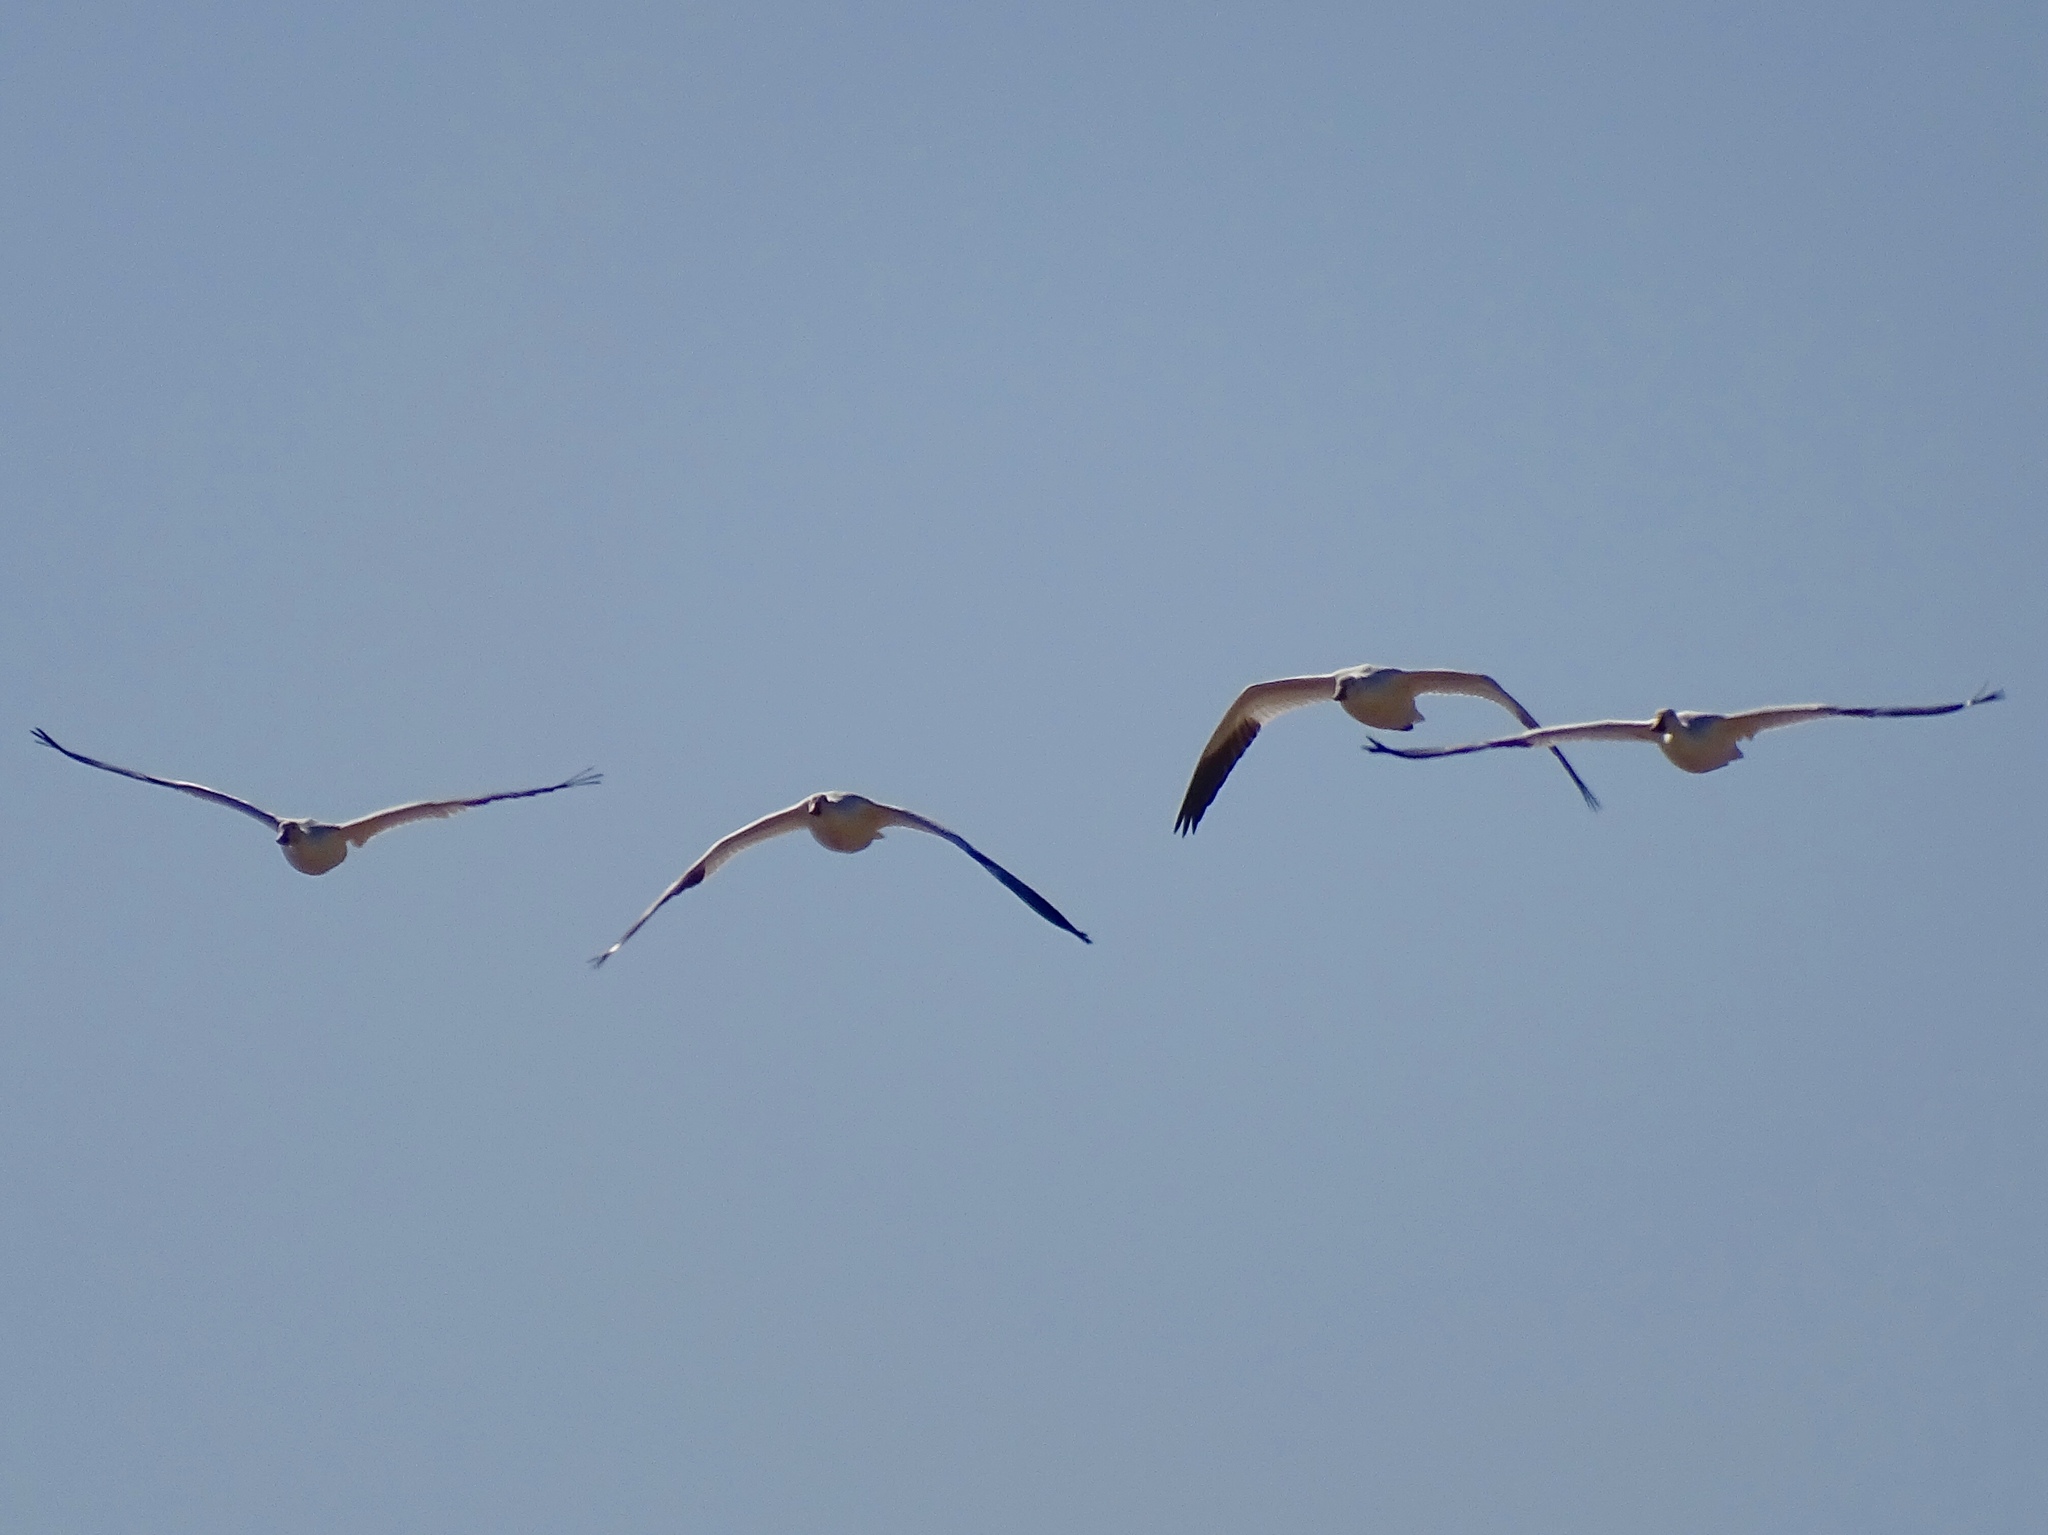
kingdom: Animalia
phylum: Chordata
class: Aves
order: Anseriformes
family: Anatidae
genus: Anser
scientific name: Anser caerulescens
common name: Snow goose
